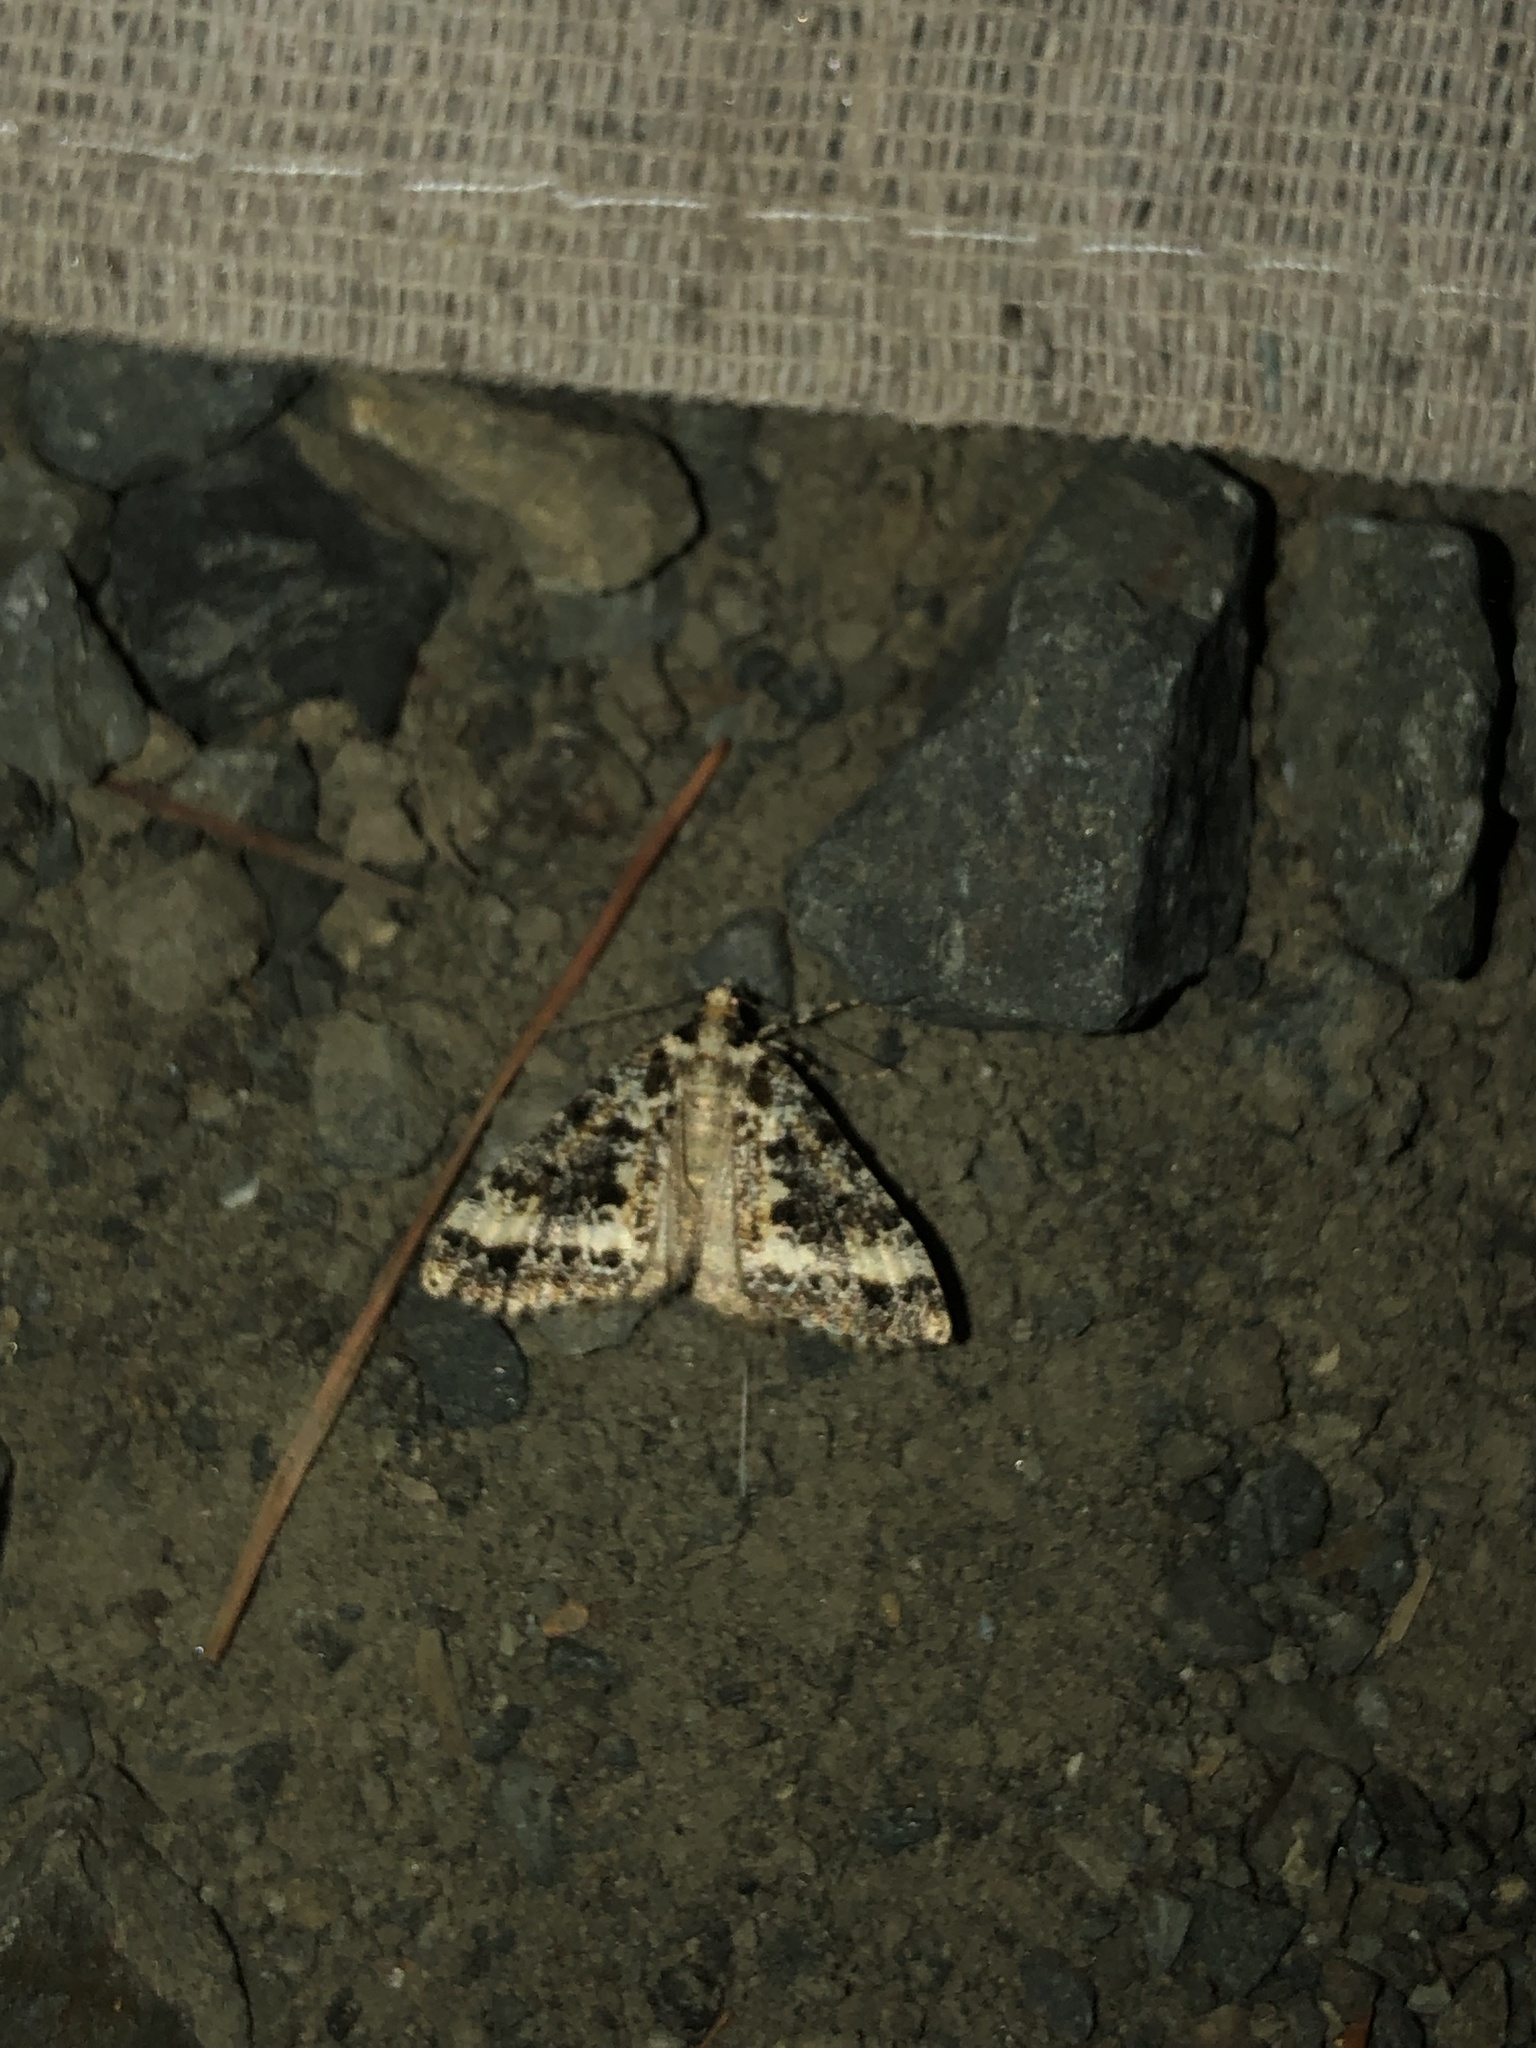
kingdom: Animalia
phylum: Arthropoda
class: Insecta
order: Lepidoptera
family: Geometridae
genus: Pseudocoremia
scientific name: Pseudocoremia leucelaea
